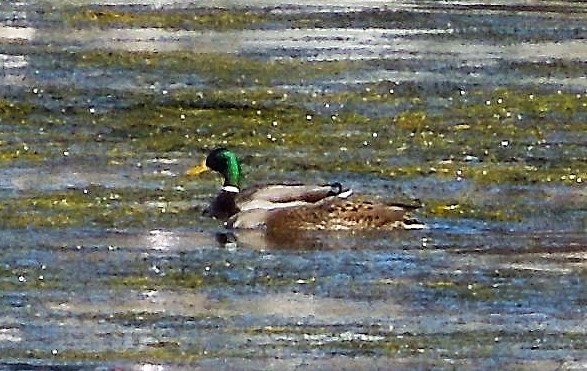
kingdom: Animalia
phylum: Chordata
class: Aves
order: Anseriformes
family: Anatidae
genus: Anas
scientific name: Anas platyrhynchos
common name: Mallard
